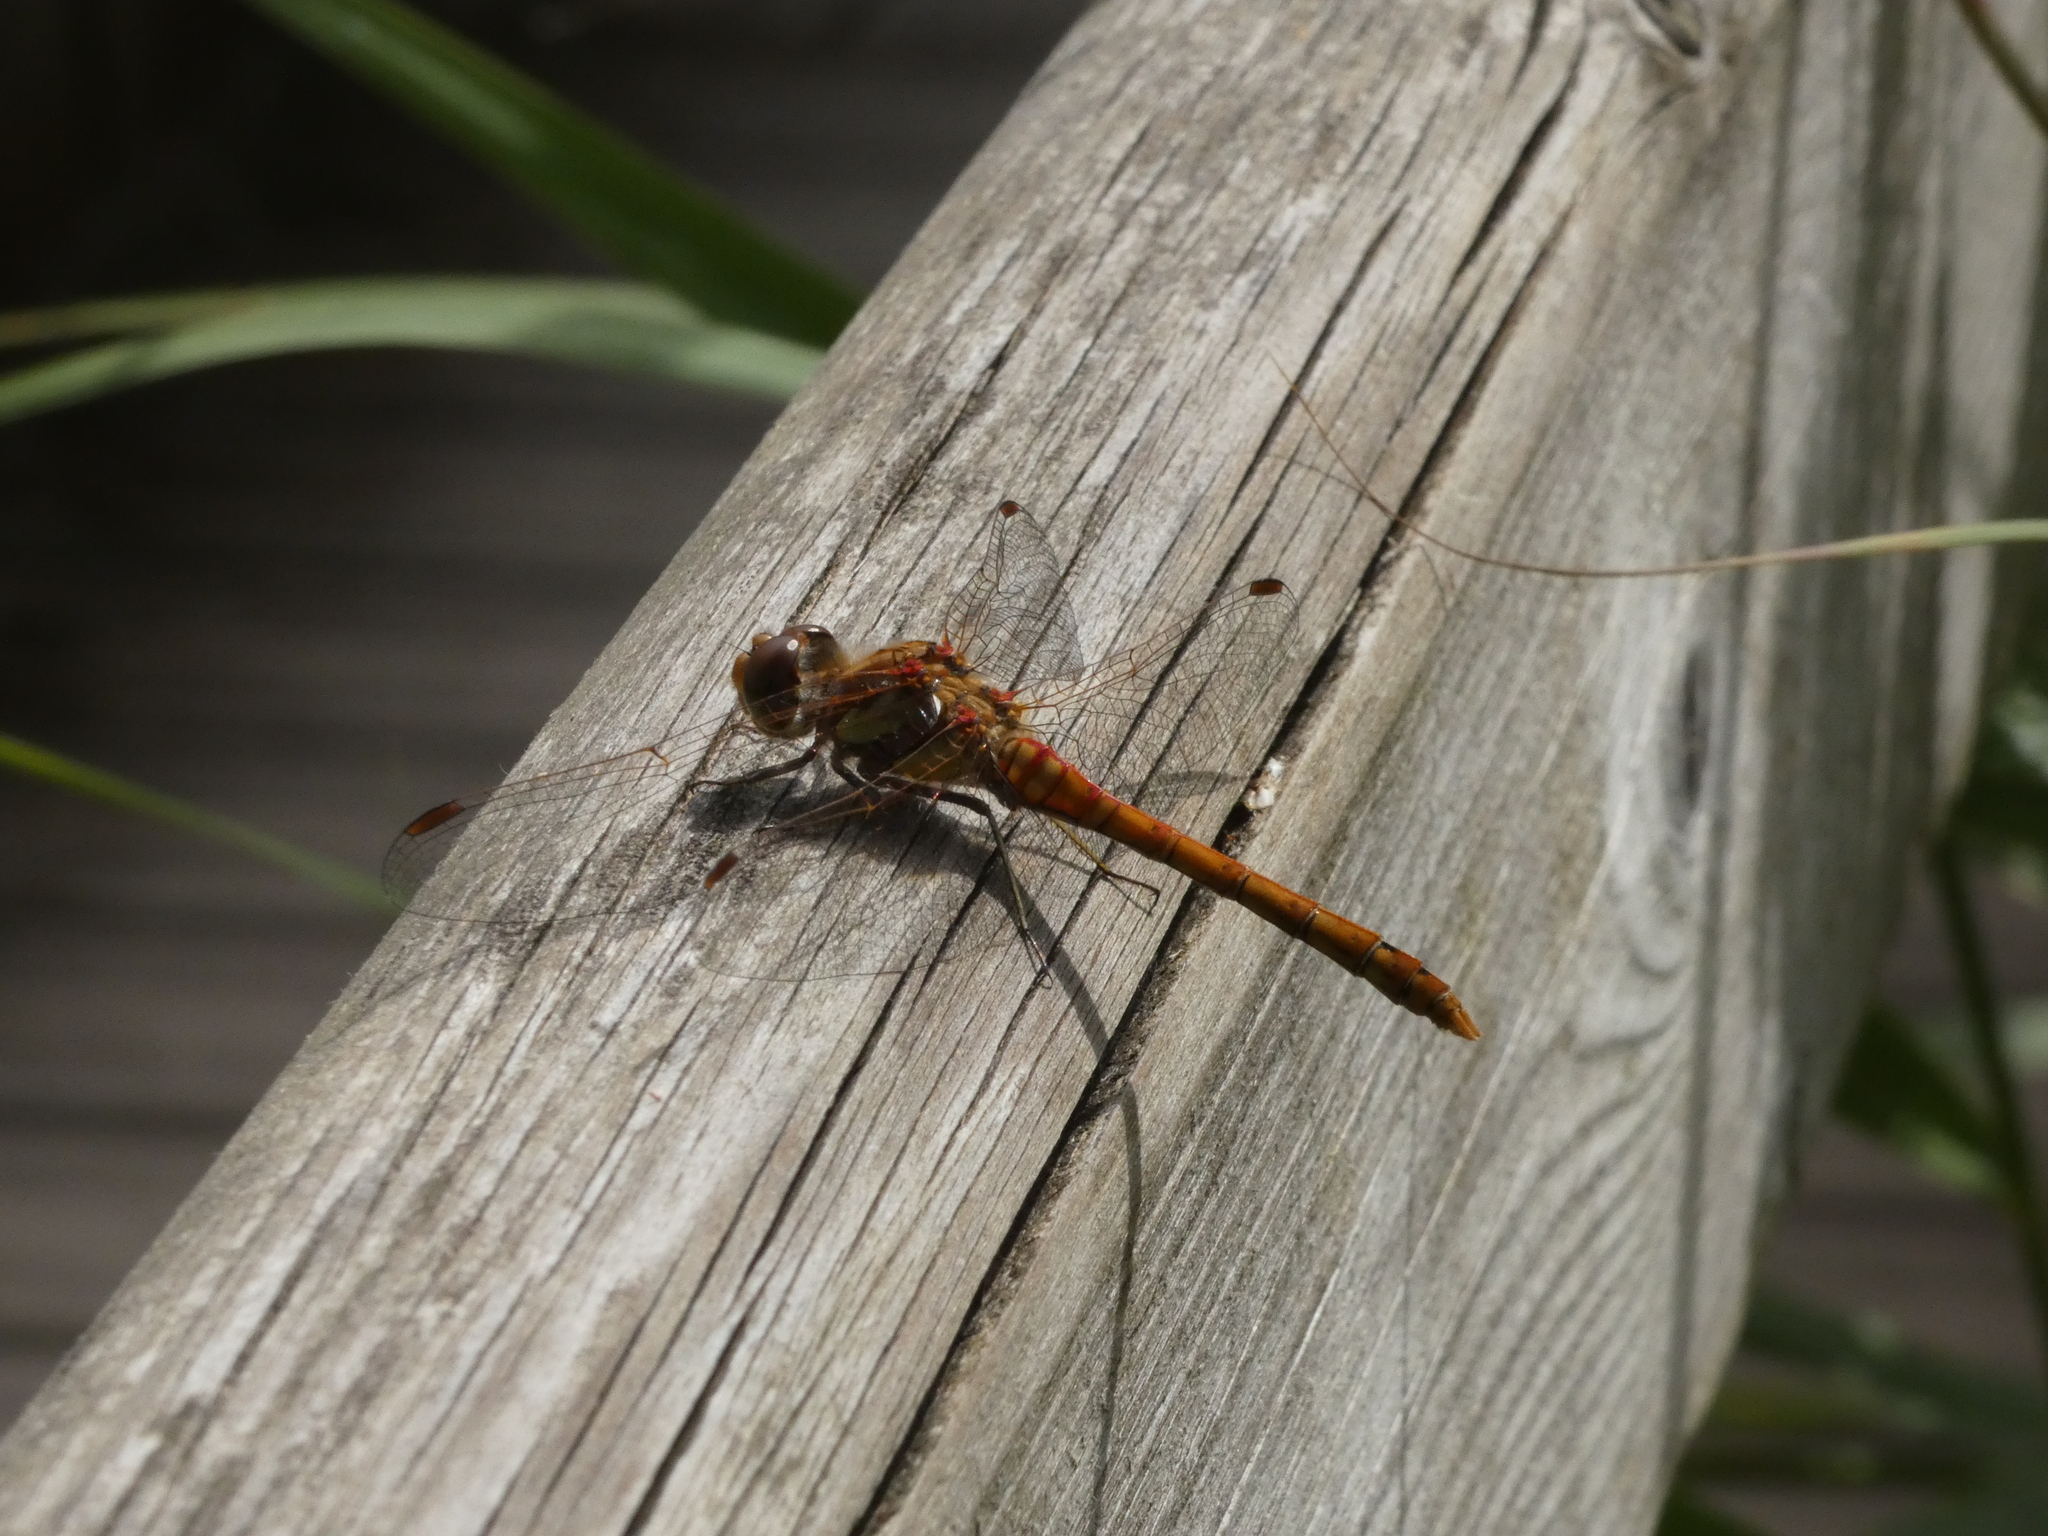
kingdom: Animalia
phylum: Arthropoda
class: Insecta
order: Odonata
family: Libellulidae
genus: Sympetrum
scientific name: Sympetrum striolatum
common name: Common darter
